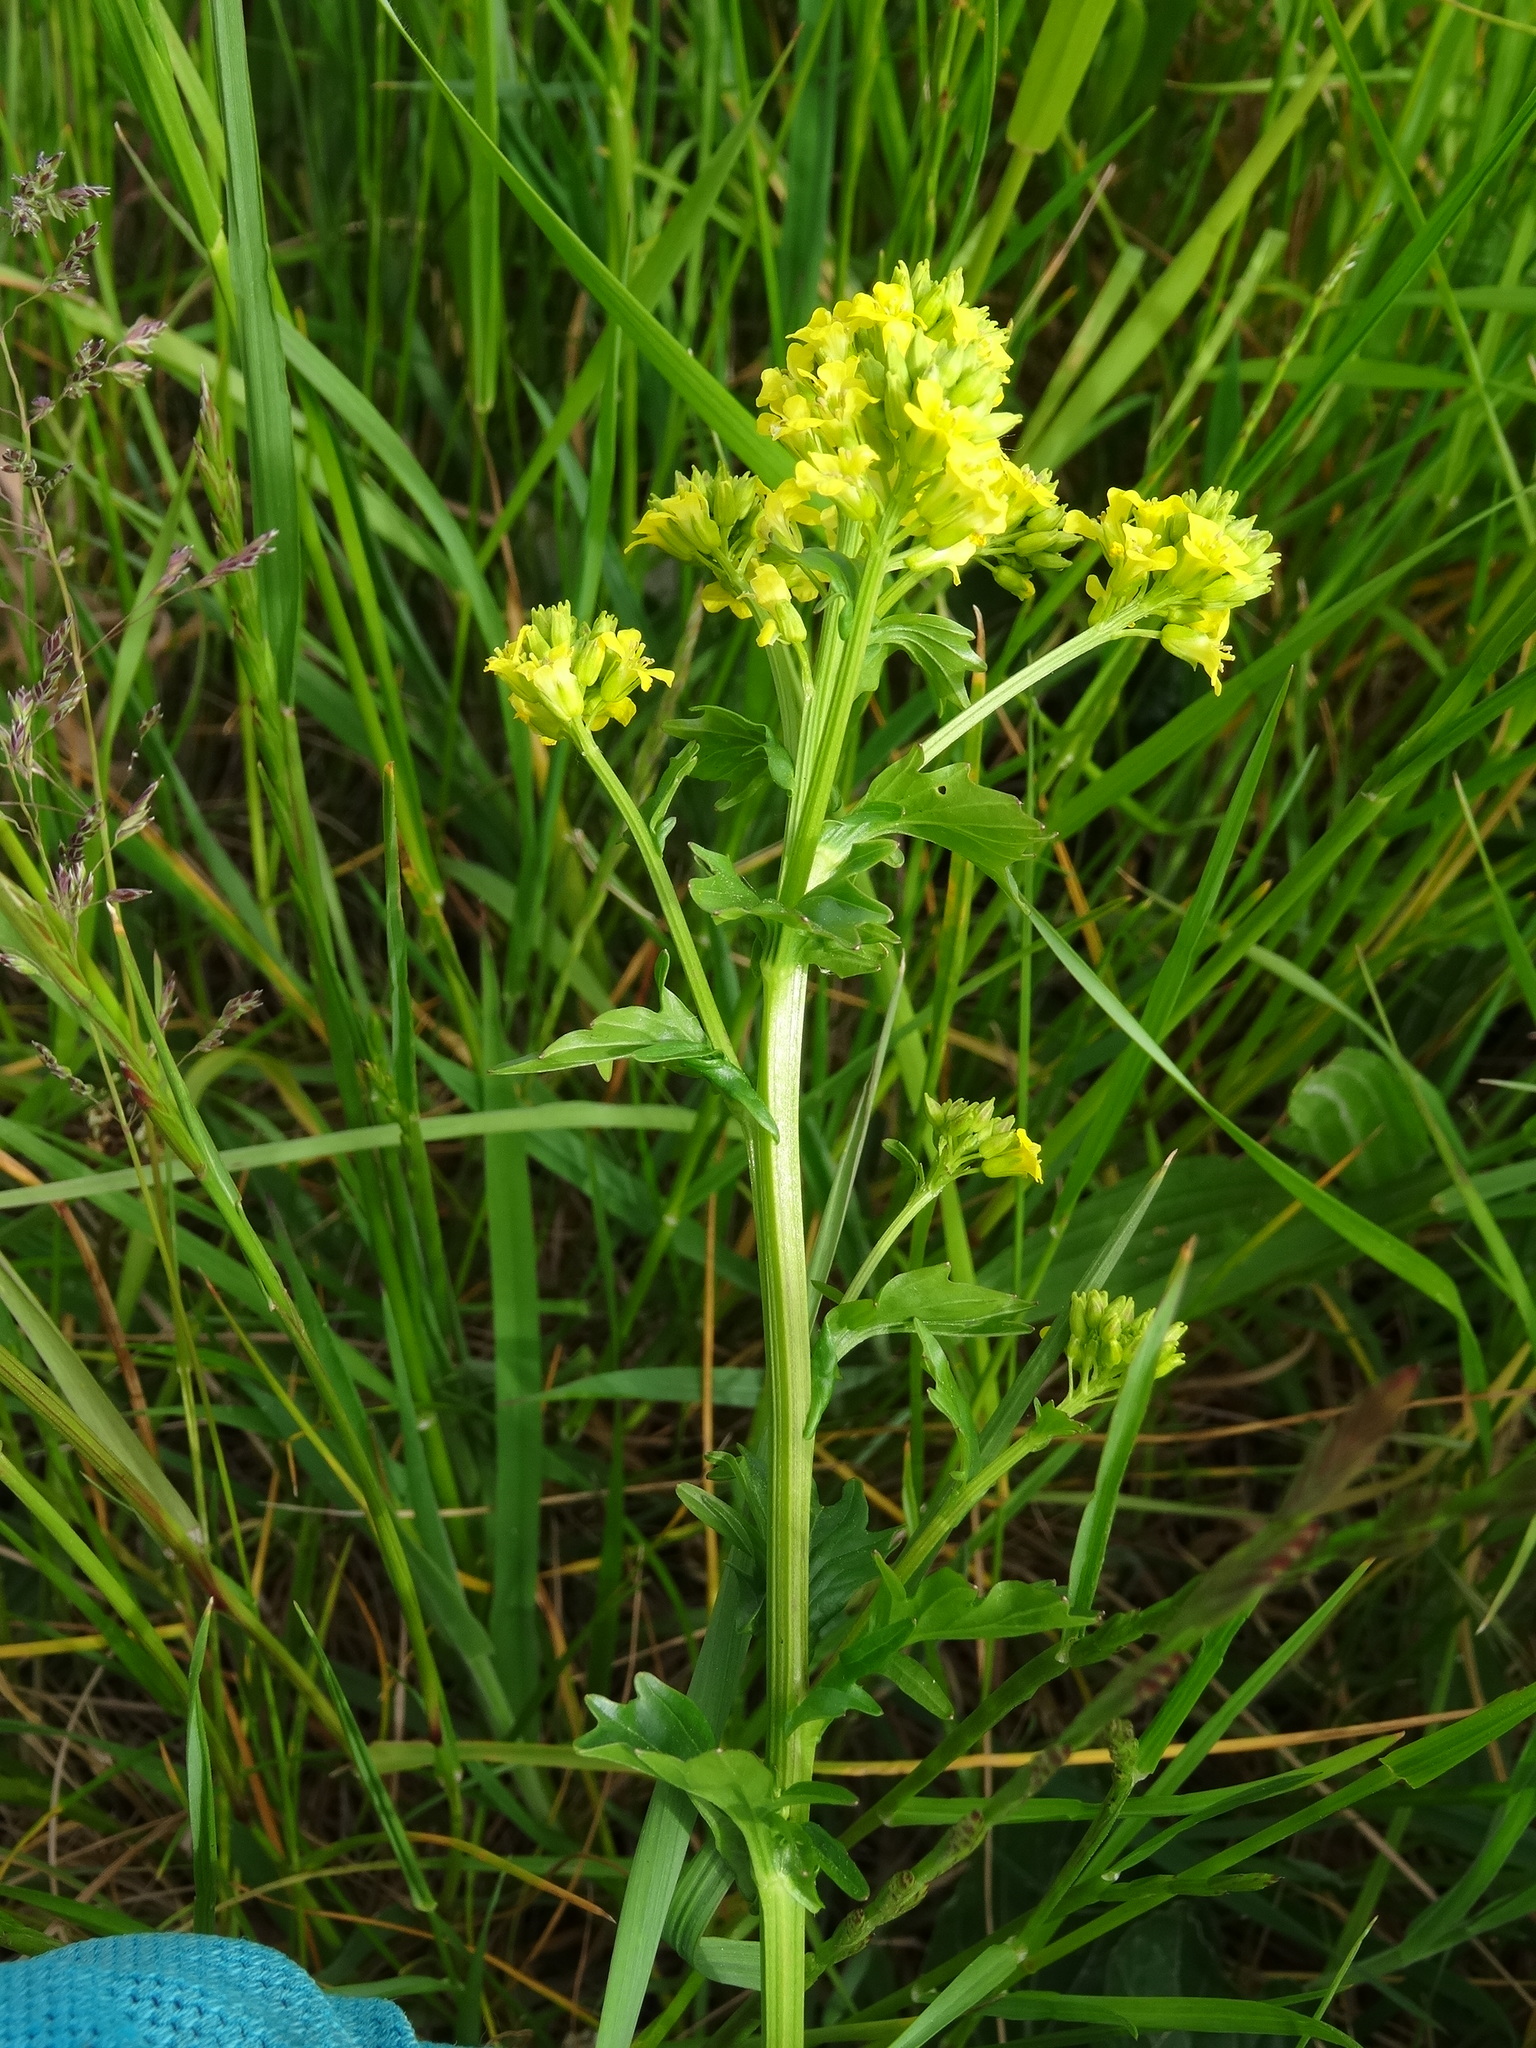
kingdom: Plantae
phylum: Tracheophyta
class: Magnoliopsida
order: Brassicales
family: Brassicaceae
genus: Barbarea
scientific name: Barbarea vulgaris
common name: Cressy-greens
